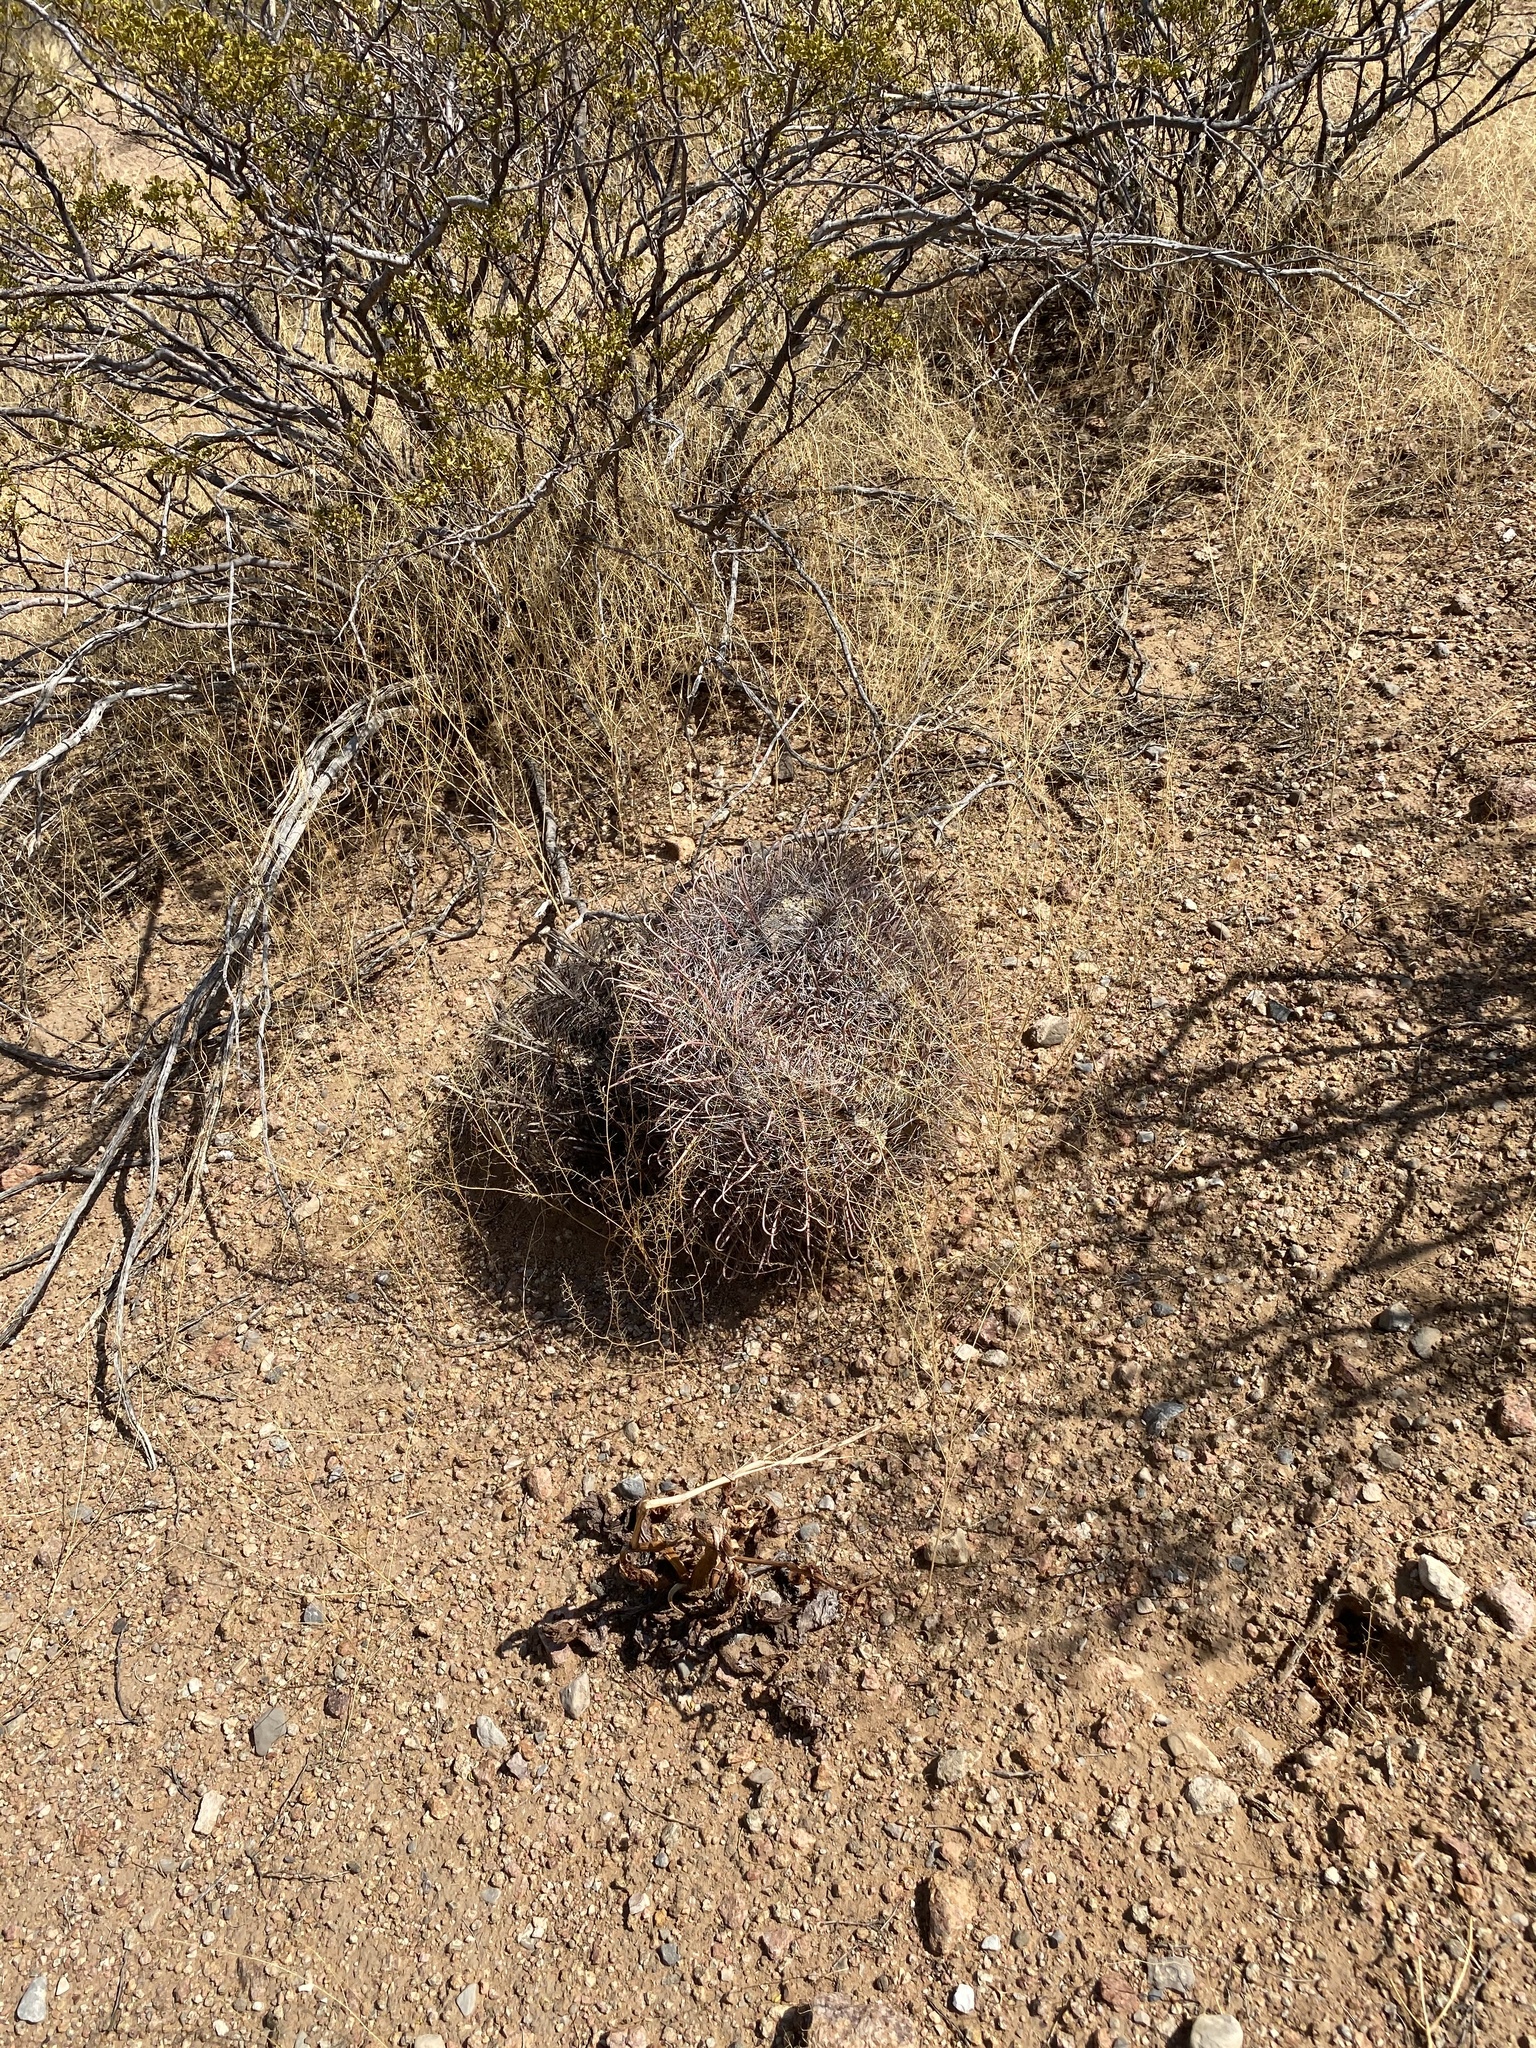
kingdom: Plantae
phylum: Tracheophyta
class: Magnoliopsida
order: Caryophyllales
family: Cactaceae
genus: Ferocactus
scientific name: Ferocactus wislizeni
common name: Candy barrel cactus
